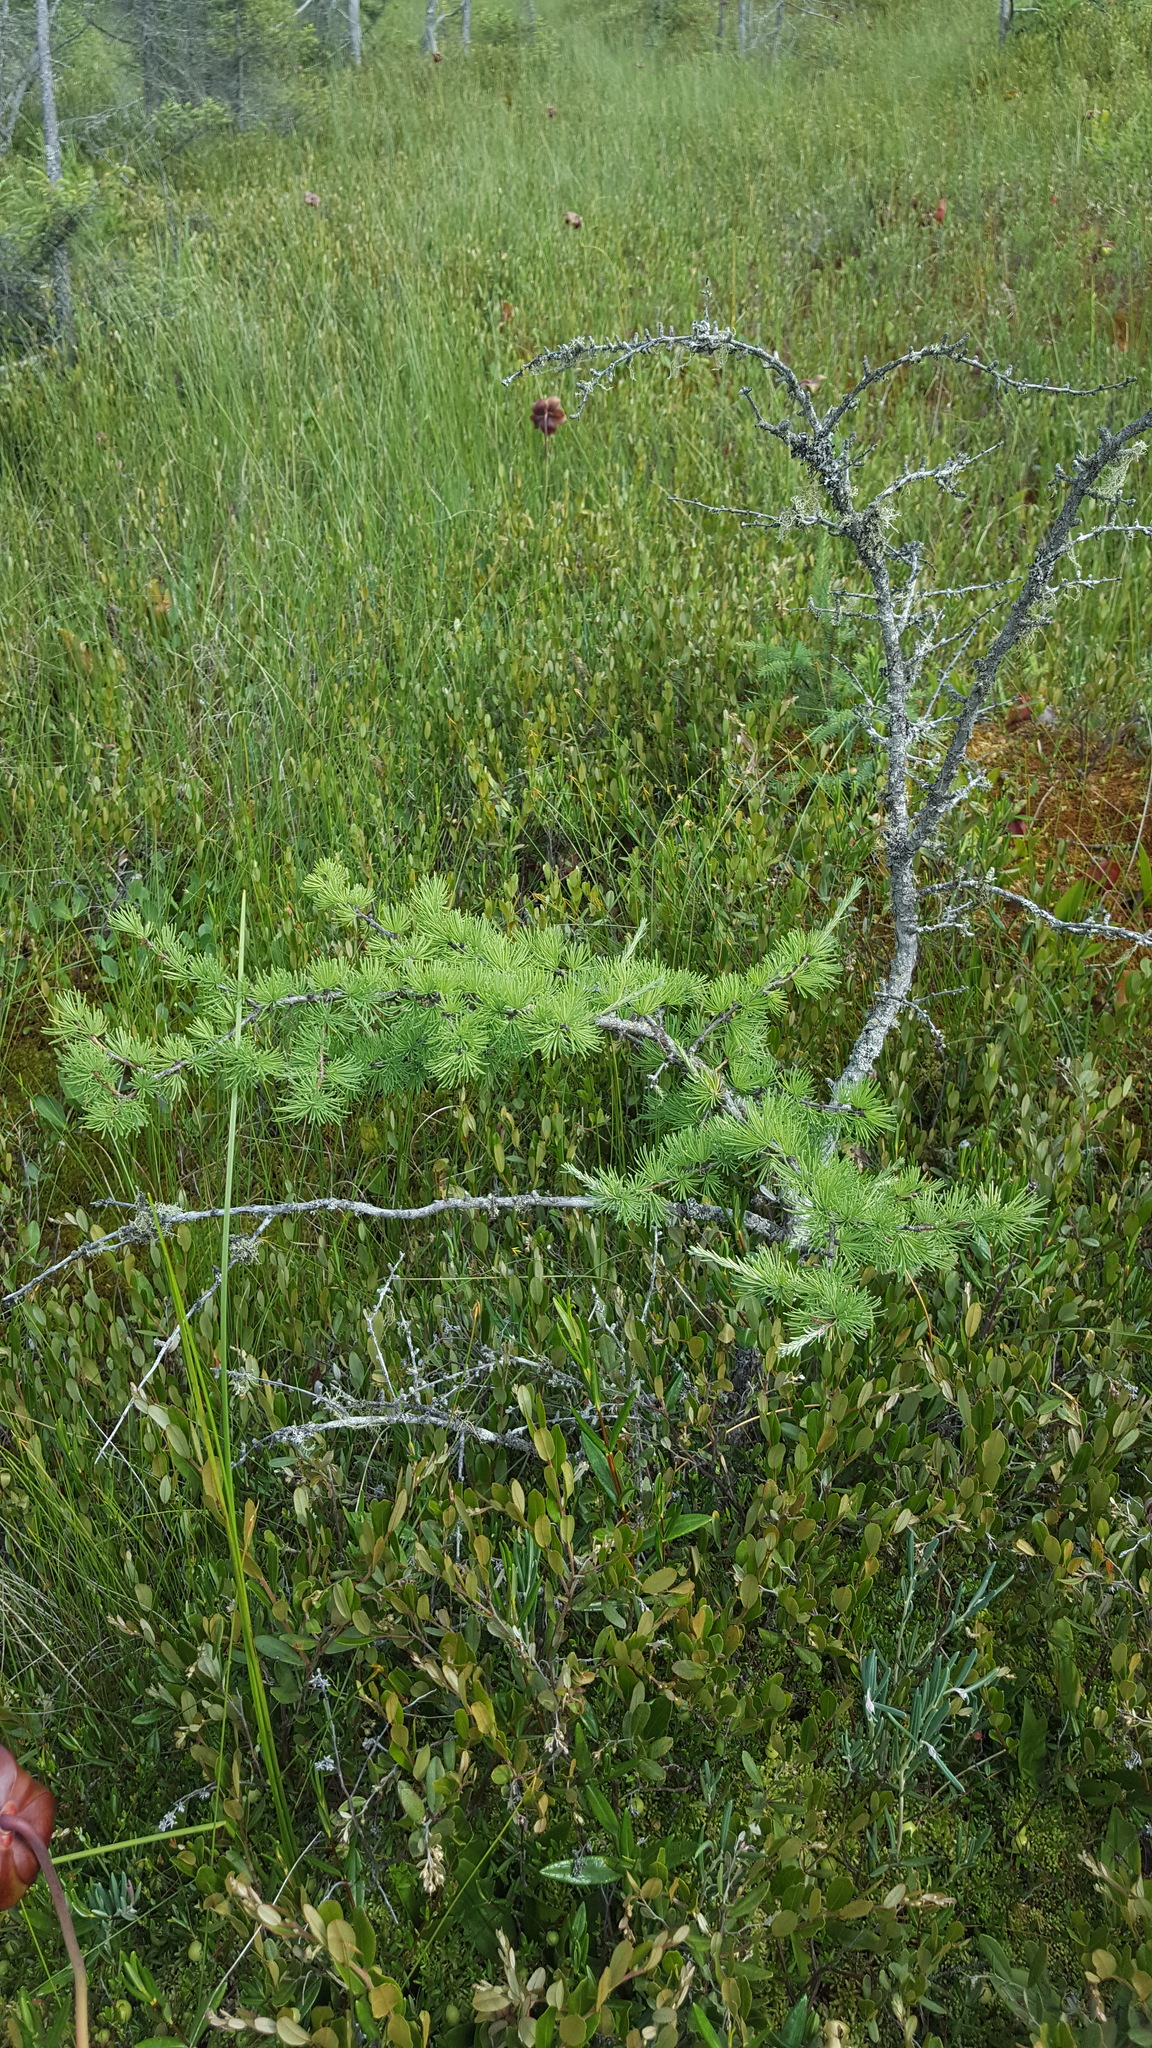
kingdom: Plantae
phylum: Tracheophyta
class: Pinopsida
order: Pinales
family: Pinaceae
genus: Larix
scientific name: Larix laricina
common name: American larch
